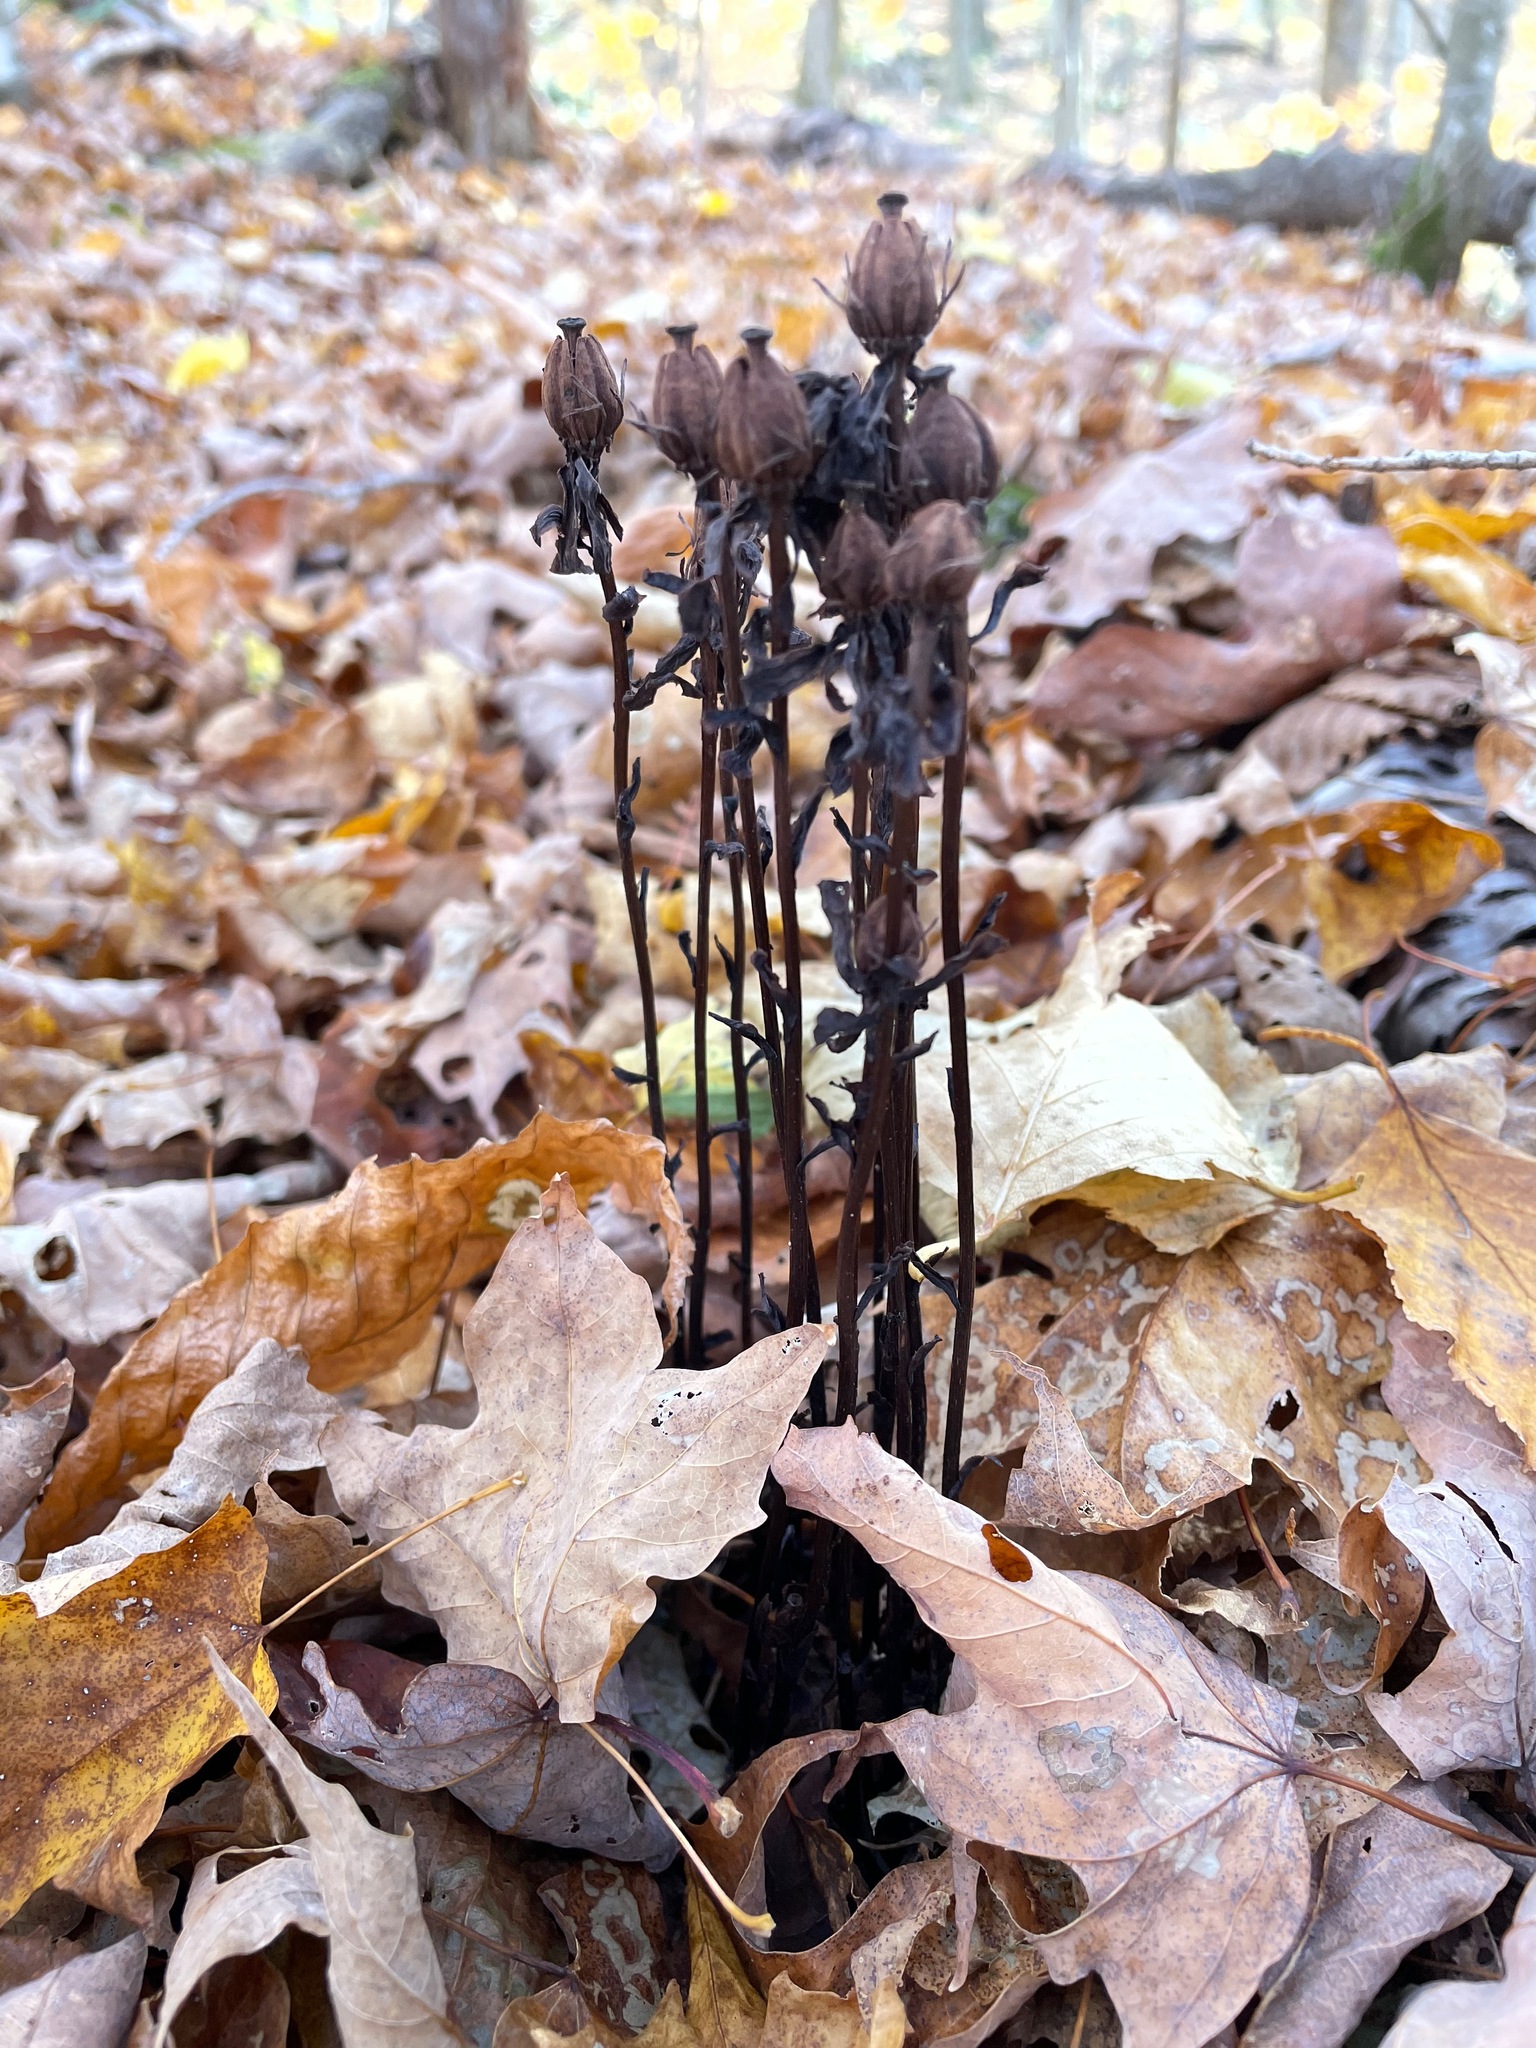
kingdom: Plantae
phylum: Tracheophyta
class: Magnoliopsida
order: Ericales
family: Ericaceae
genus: Monotropa
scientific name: Monotropa uniflora
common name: Convulsion root
